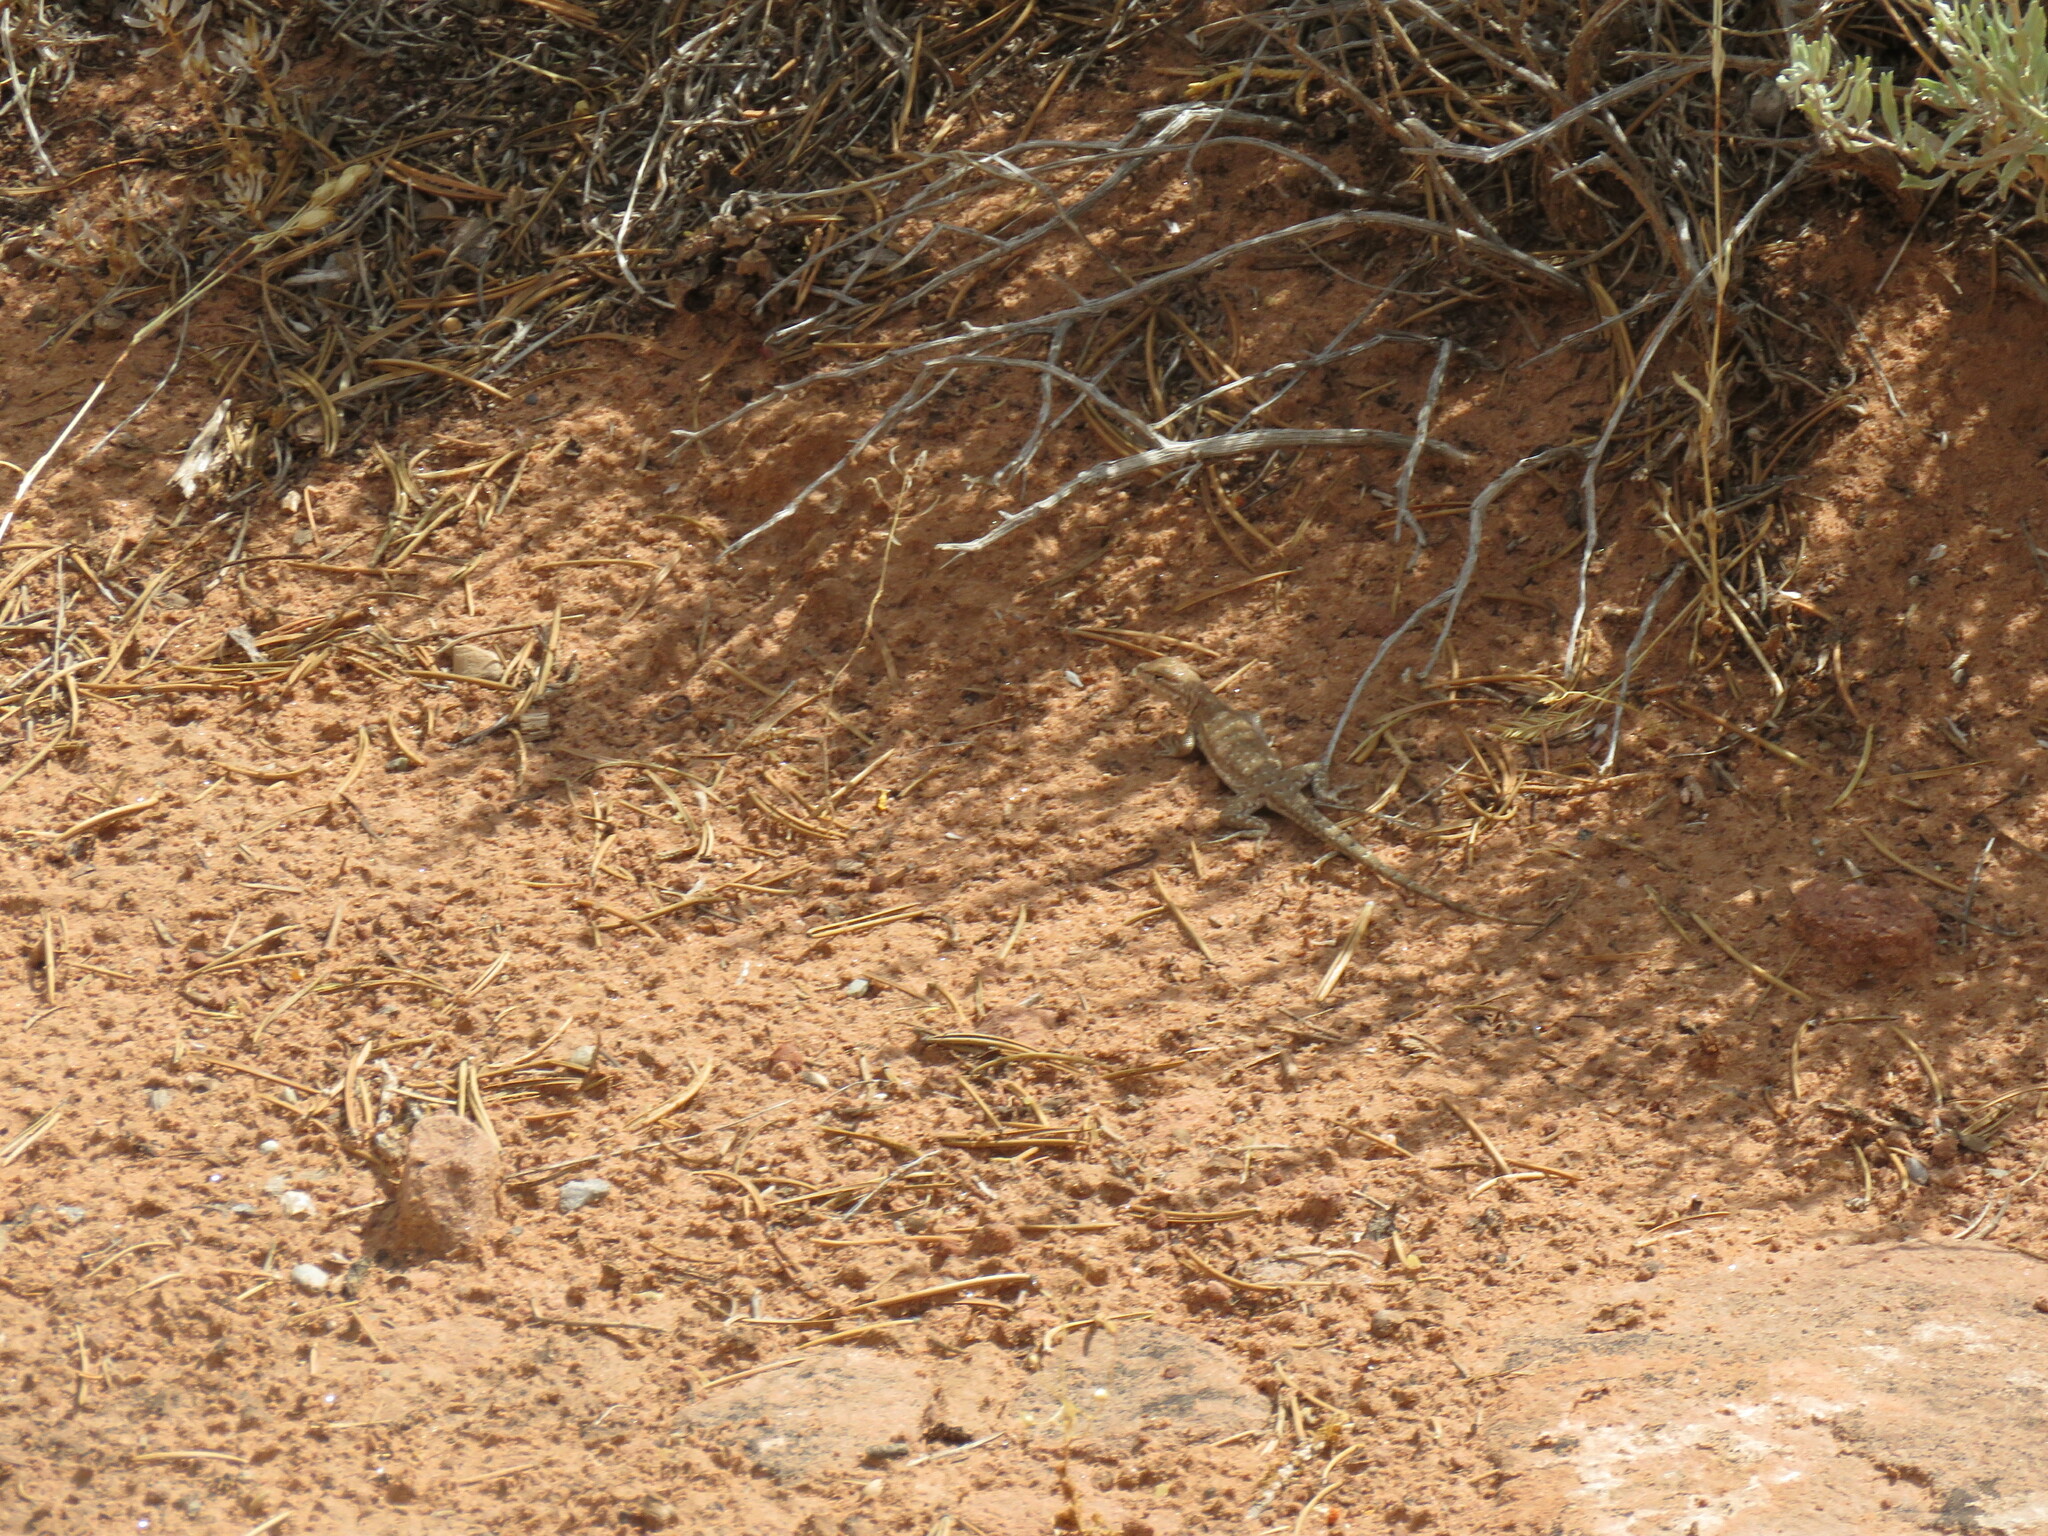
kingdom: Animalia
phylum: Chordata
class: Squamata
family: Phrynosomatidae
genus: Uta
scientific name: Uta stansburiana
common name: Side-blotched lizard
